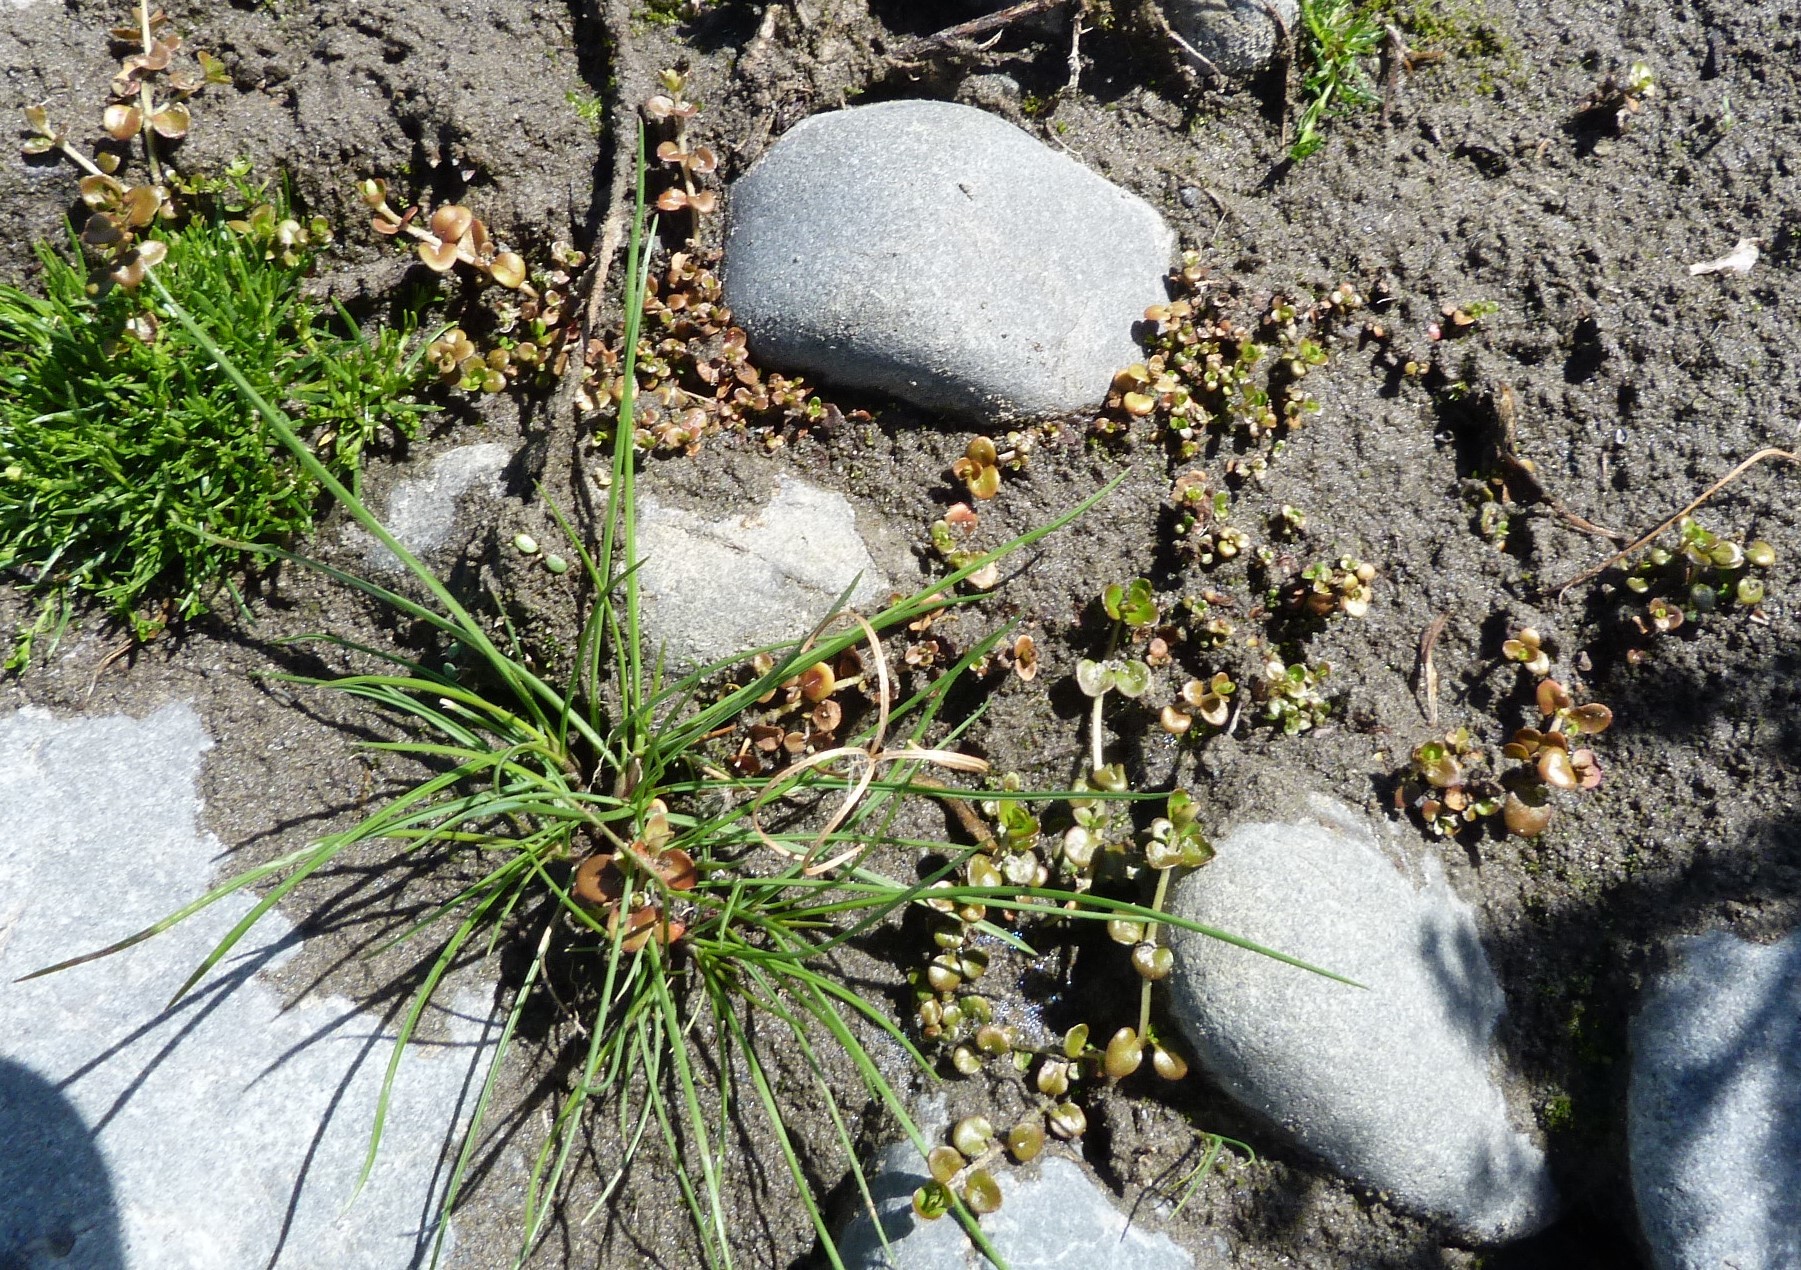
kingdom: Plantae
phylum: Tracheophyta
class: Magnoliopsida
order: Myrtales
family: Onagraceae
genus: Epilobium
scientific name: Epilobium brunnescens
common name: New zealand willowherb
